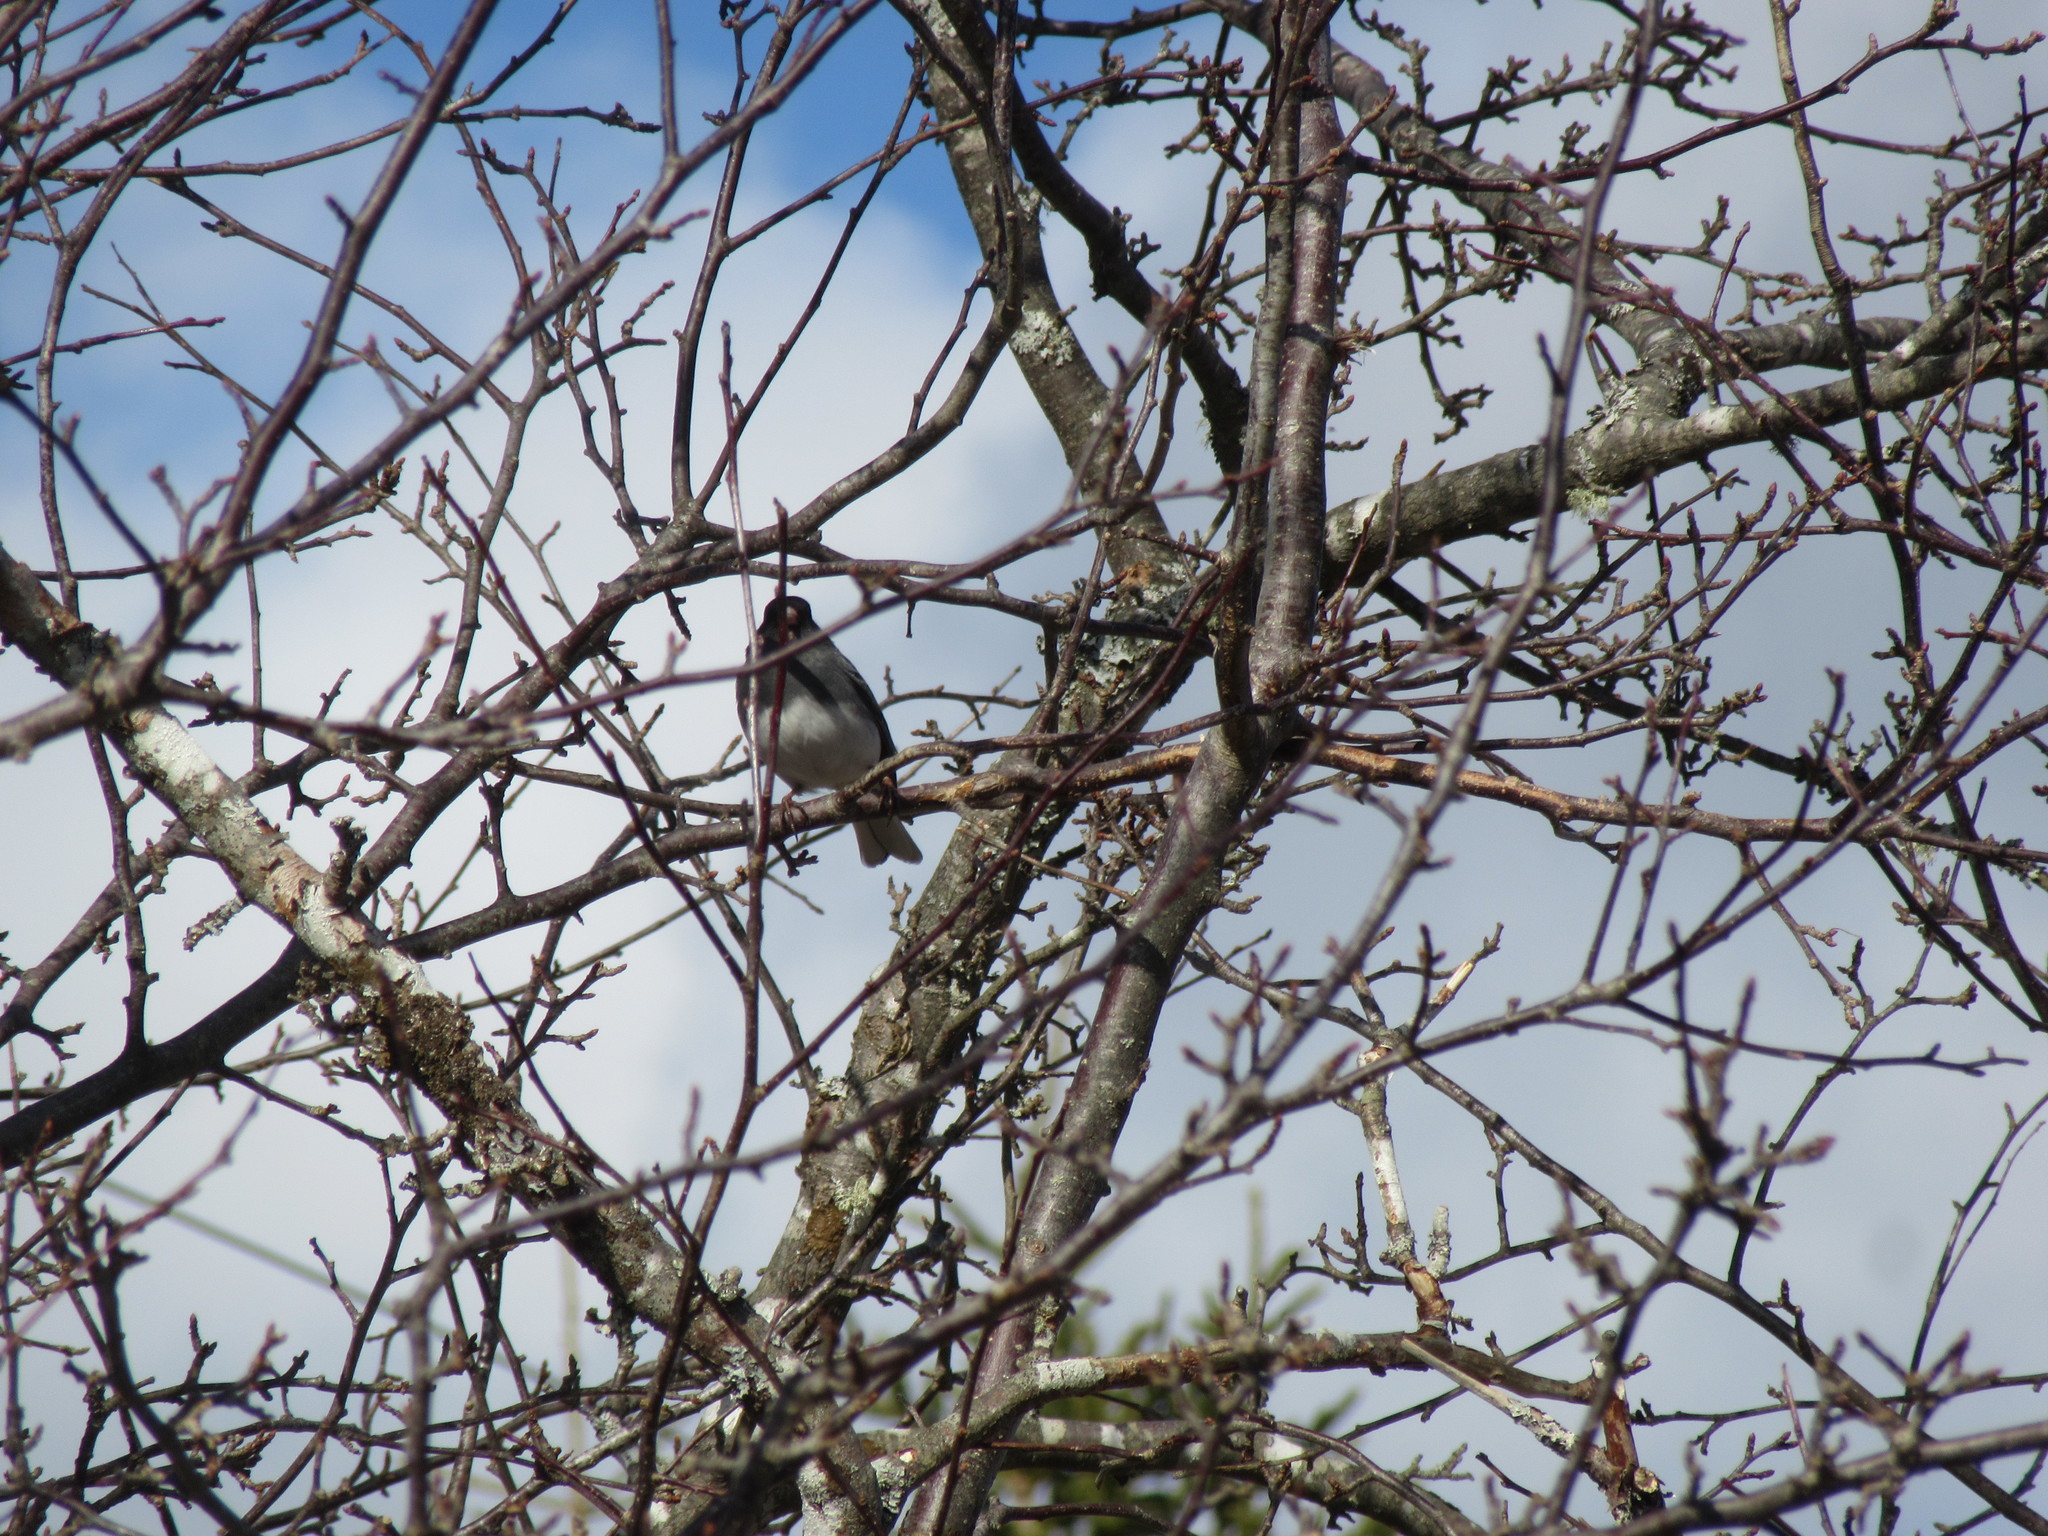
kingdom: Animalia
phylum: Chordata
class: Aves
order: Passeriformes
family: Passerellidae
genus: Junco
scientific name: Junco hyemalis
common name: Dark-eyed junco
